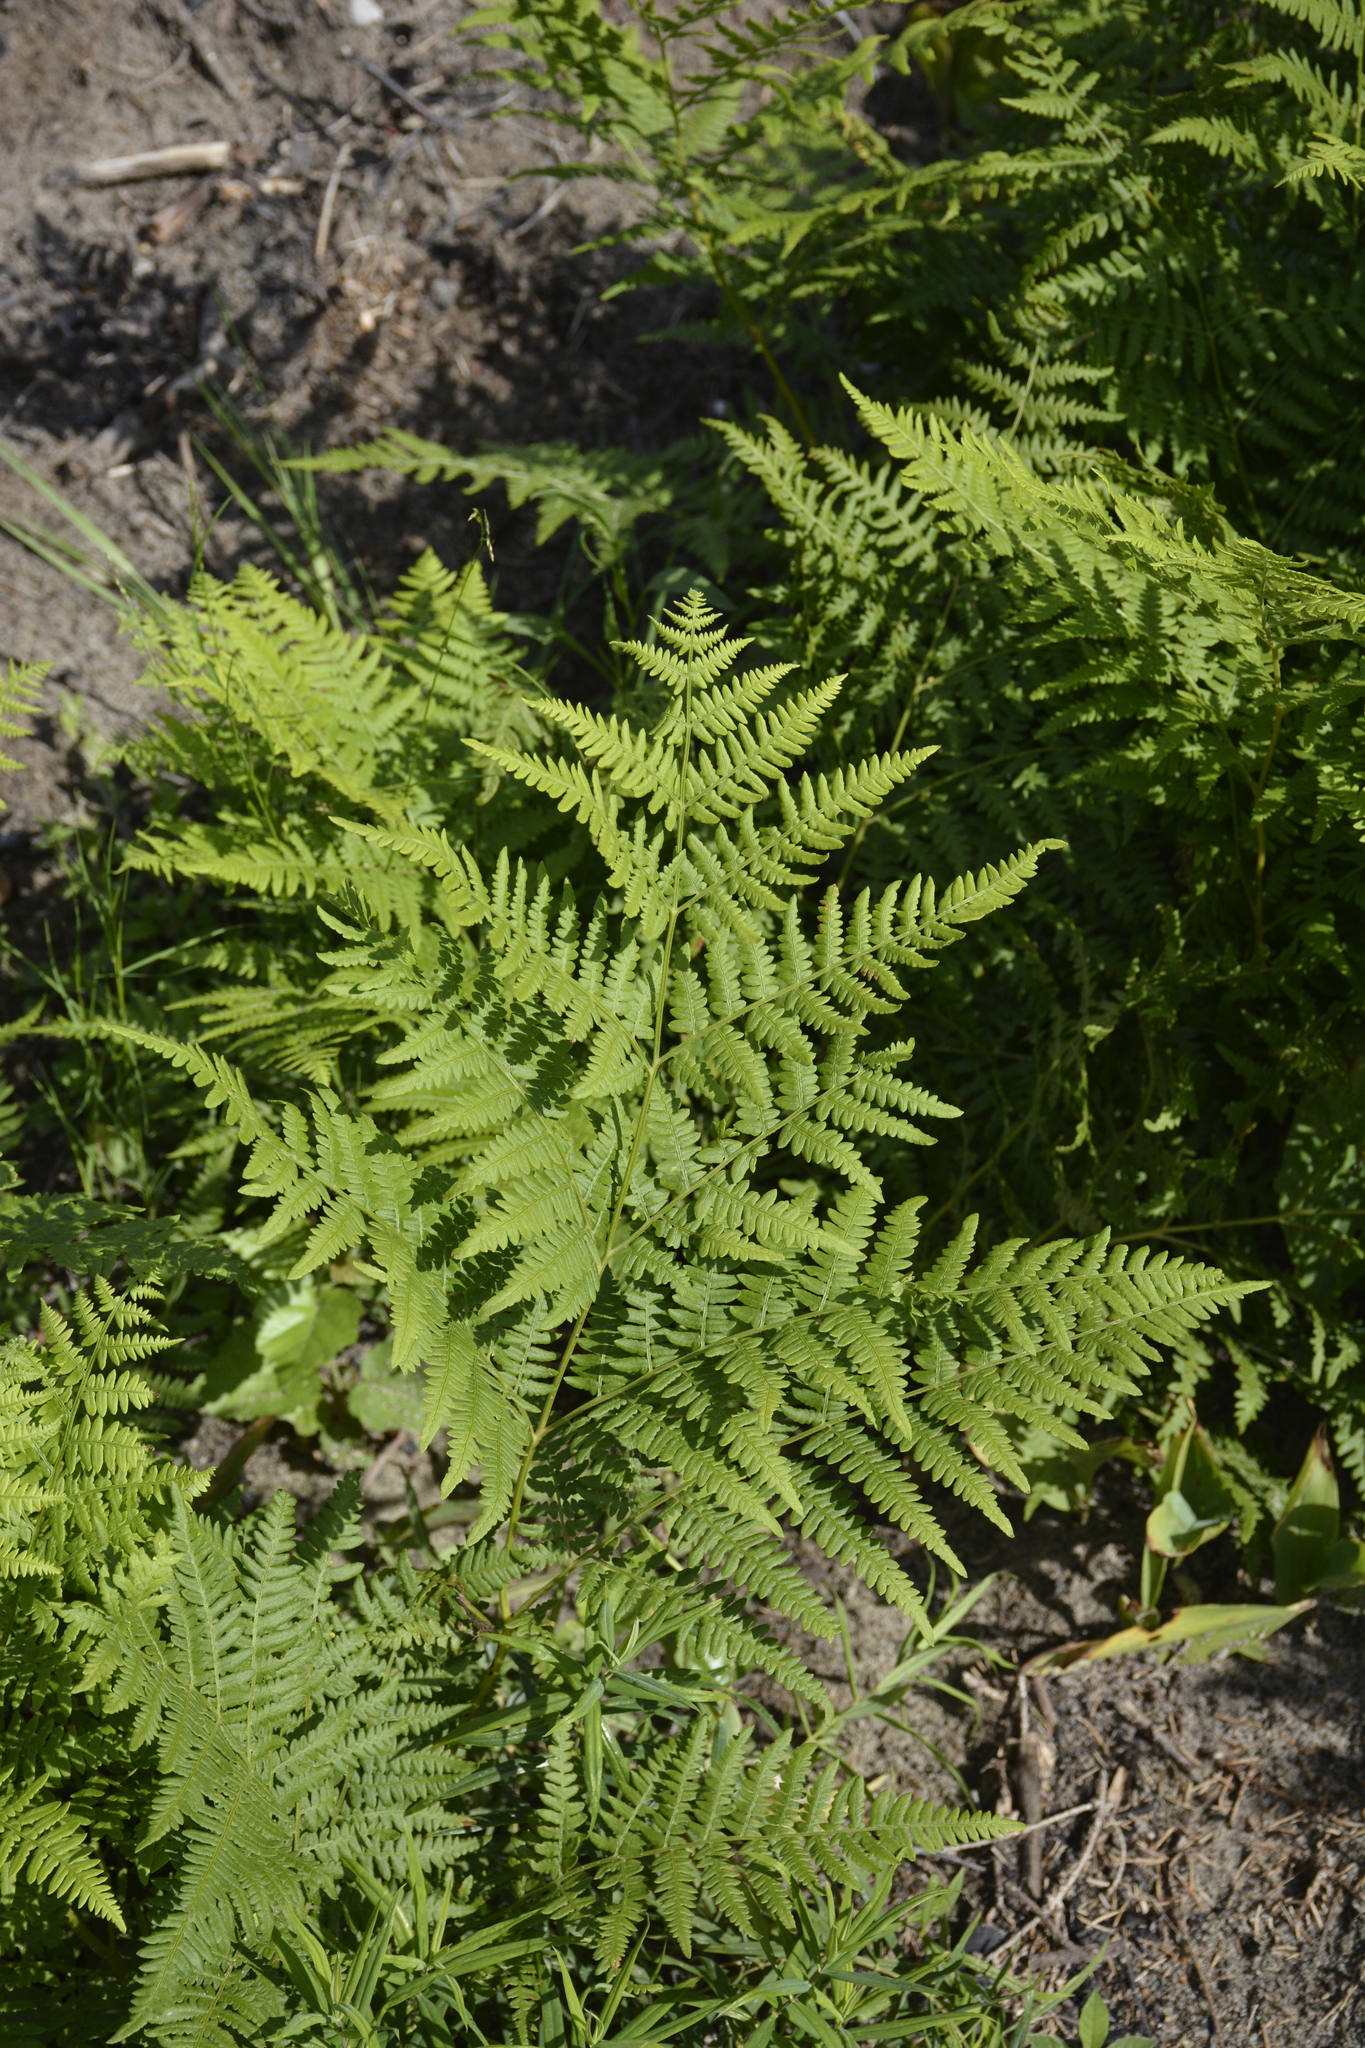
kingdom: Plantae
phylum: Tracheophyta
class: Polypodiopsida
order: Polypodiales
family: Dennstaedtiaceae
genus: Pteridium
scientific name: Pteridium aquilinum
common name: Bracken
